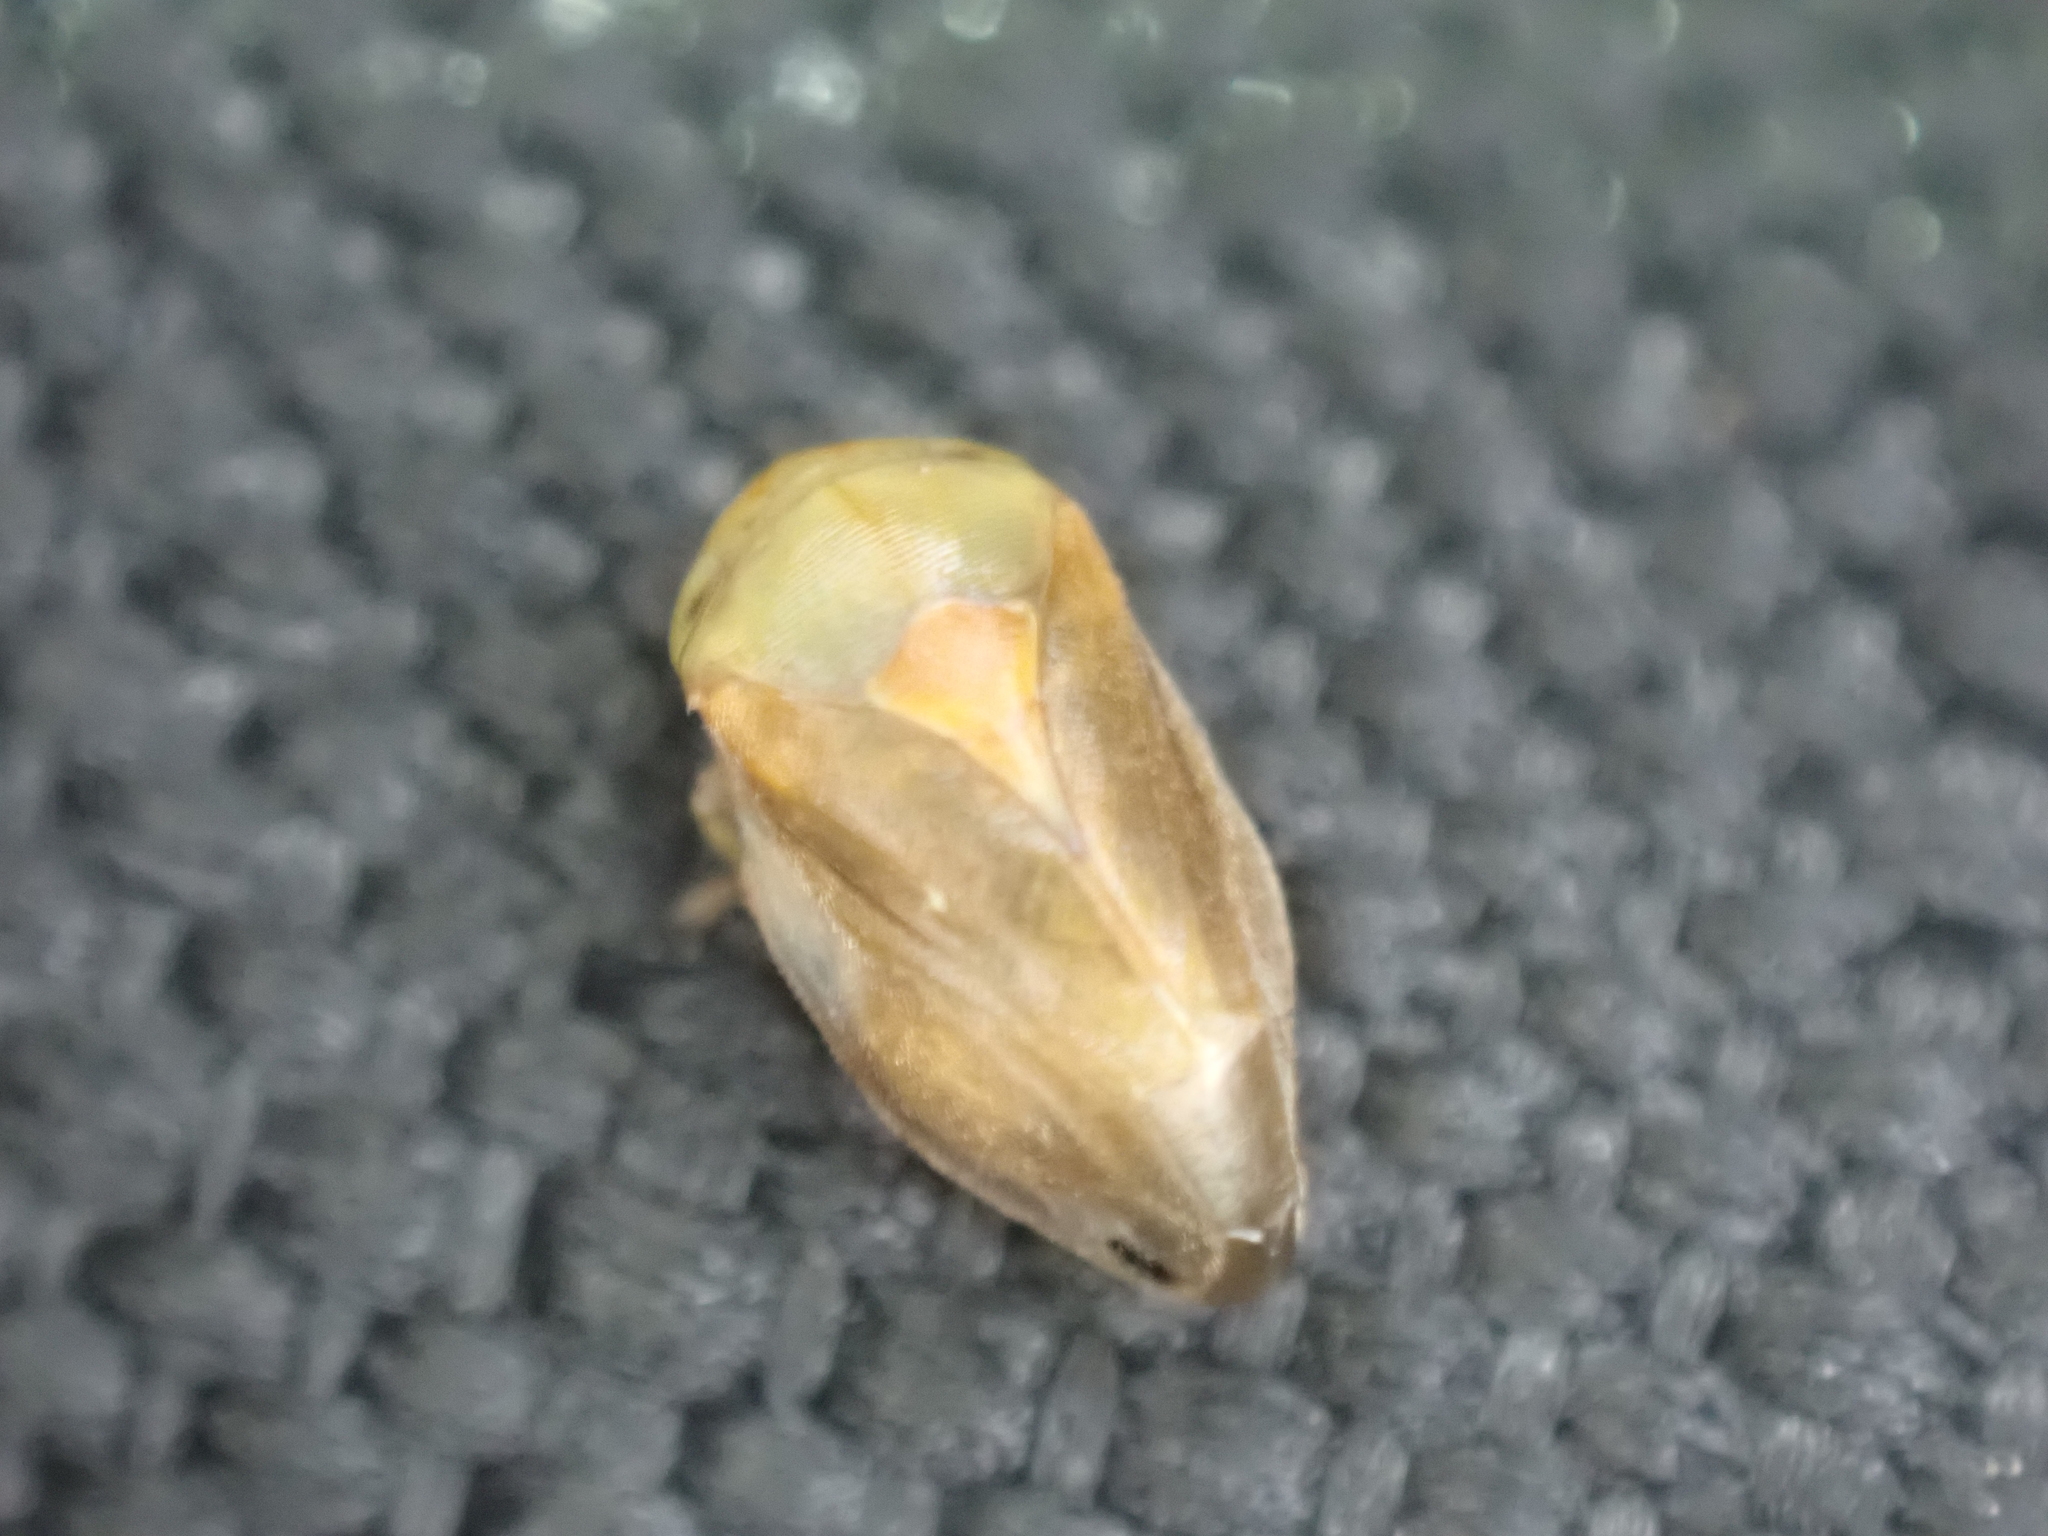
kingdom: Animalia
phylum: Arthropoda
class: Insecta
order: Hemiptera
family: Clastopteridae
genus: Clastoptera
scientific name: Clastoptera testacea
